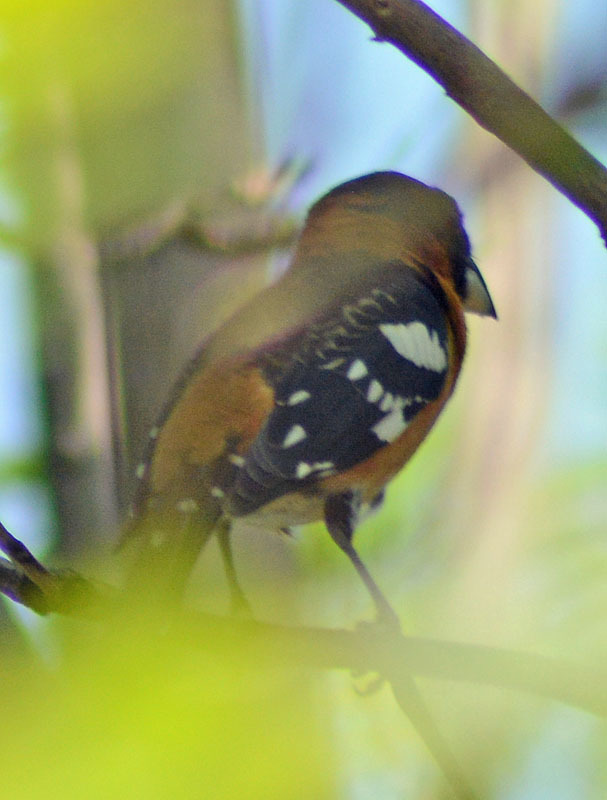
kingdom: Animalia
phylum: Chordata
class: Aves
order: Passeriformes
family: Cardinalidae
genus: Pheucticus
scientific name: Pheucticus melanocephalus
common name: Black-headed grosbeak
